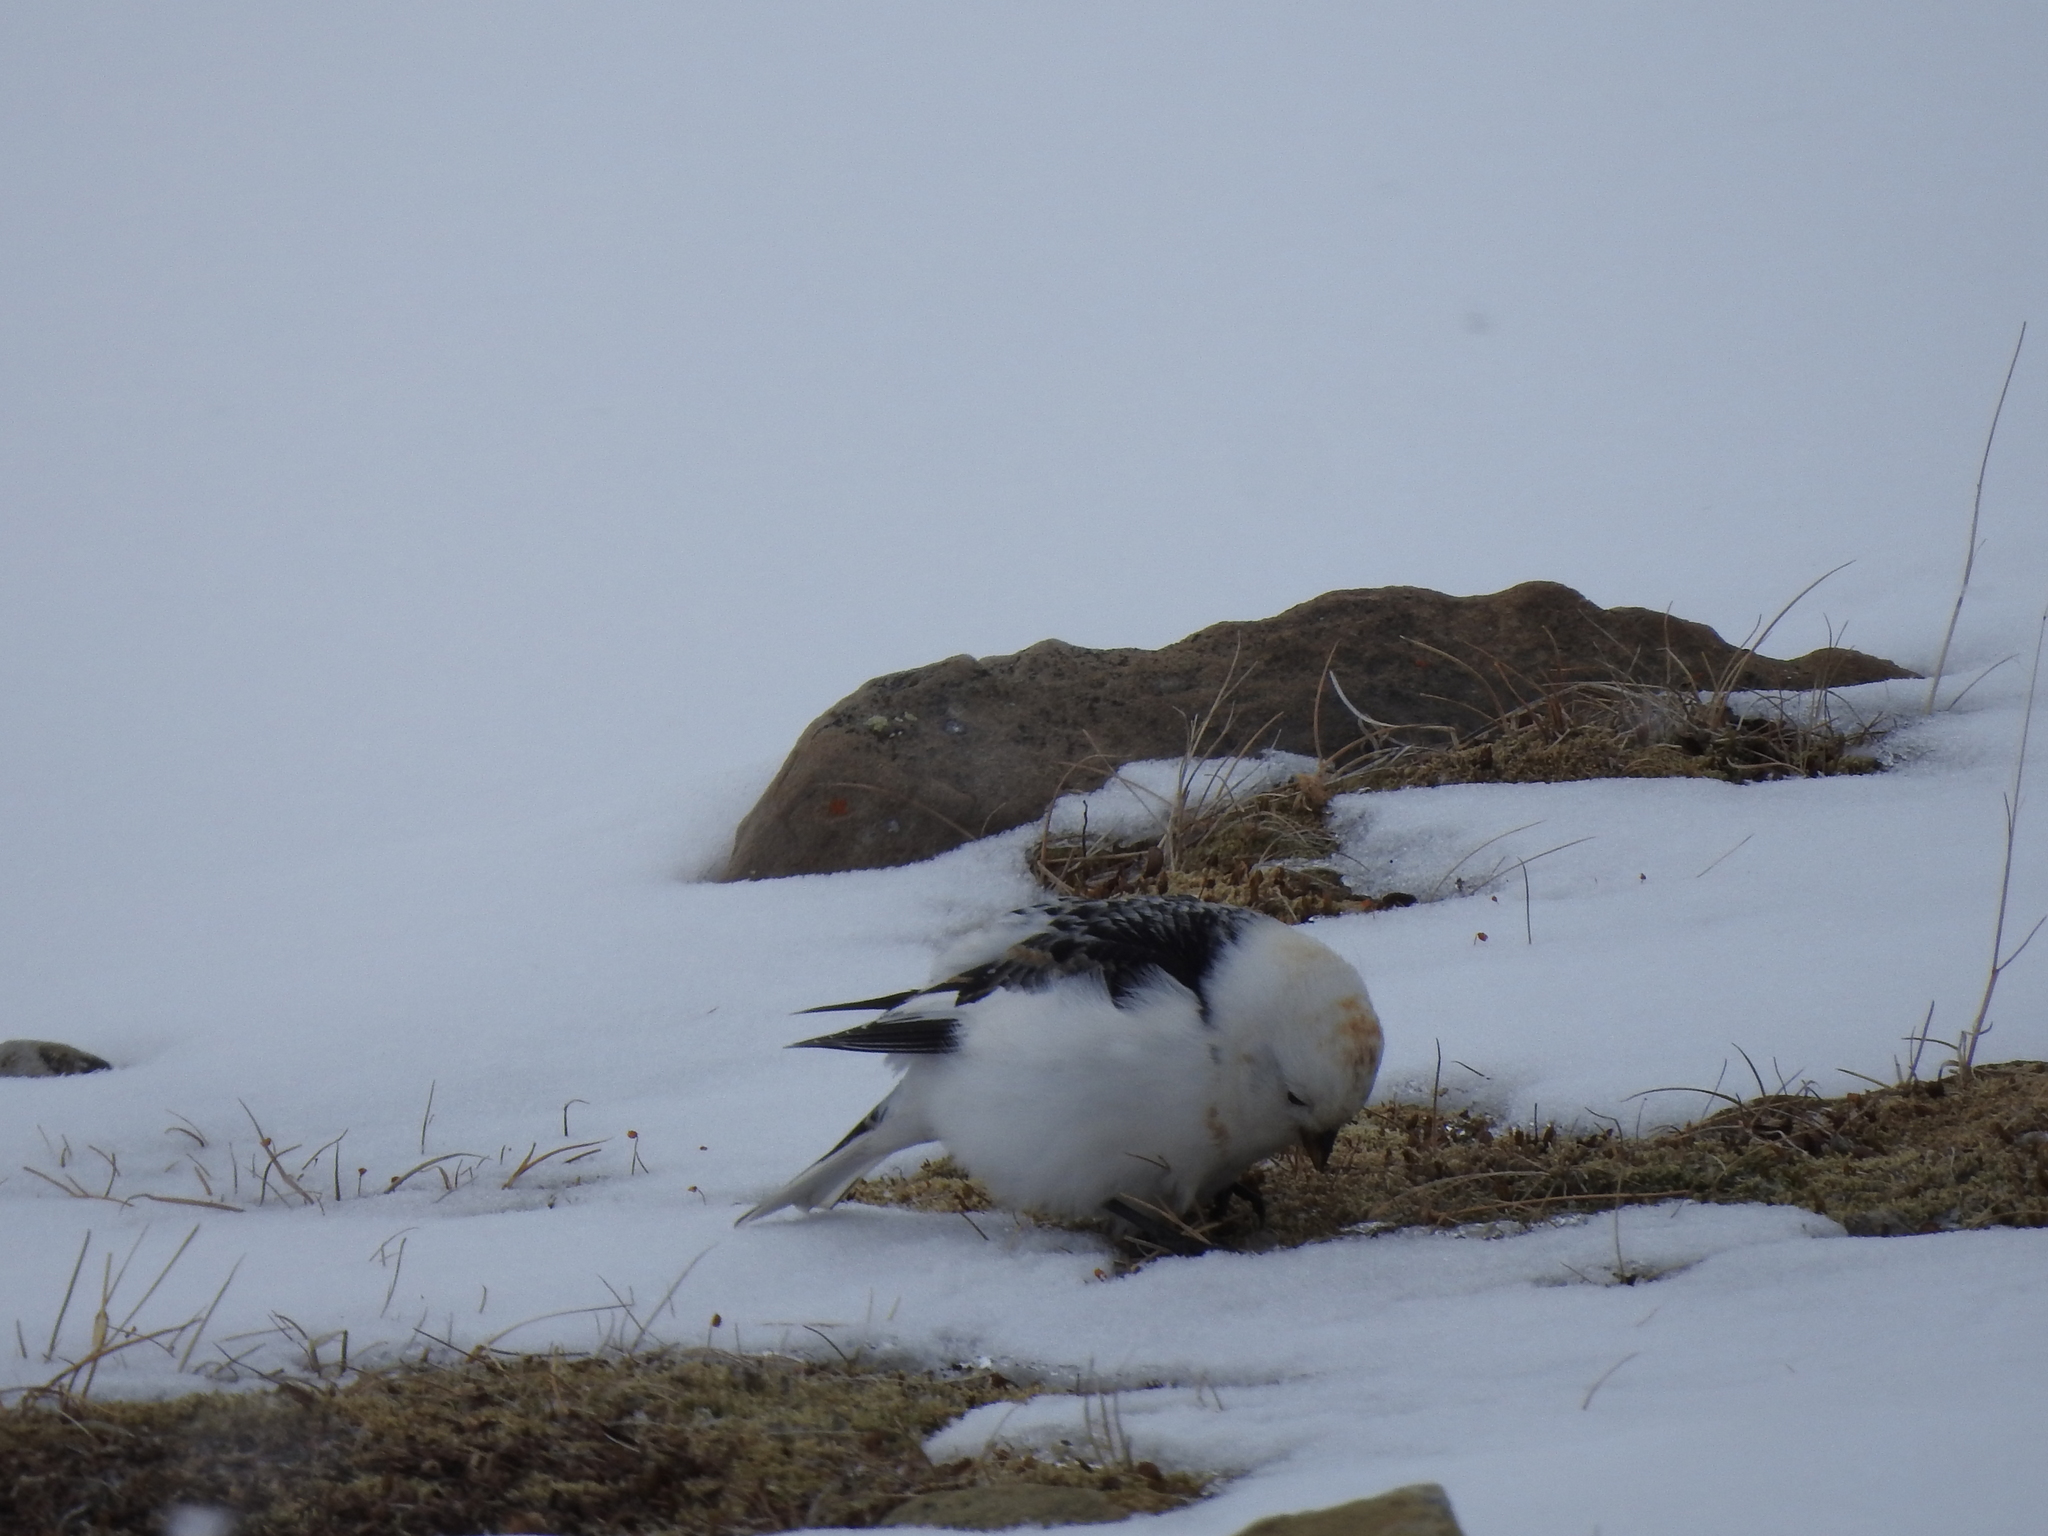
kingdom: Animalia
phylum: Chordata
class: Aves
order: Passeriformes
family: Calcariidae
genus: Plectrophenax
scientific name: Plectrophenax nivalis
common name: Snow bunting
